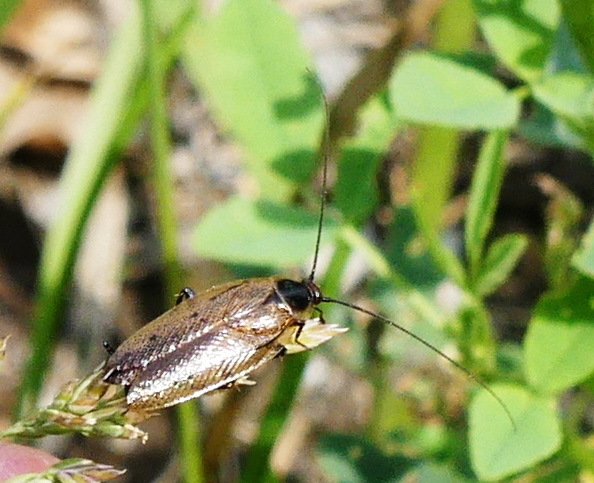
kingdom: Animalia
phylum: Arthropoda
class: Insecta
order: Blattodea
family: Ectobiidae
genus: Ectobius
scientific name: Ectobius lapponicus
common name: Dusky cockroach
